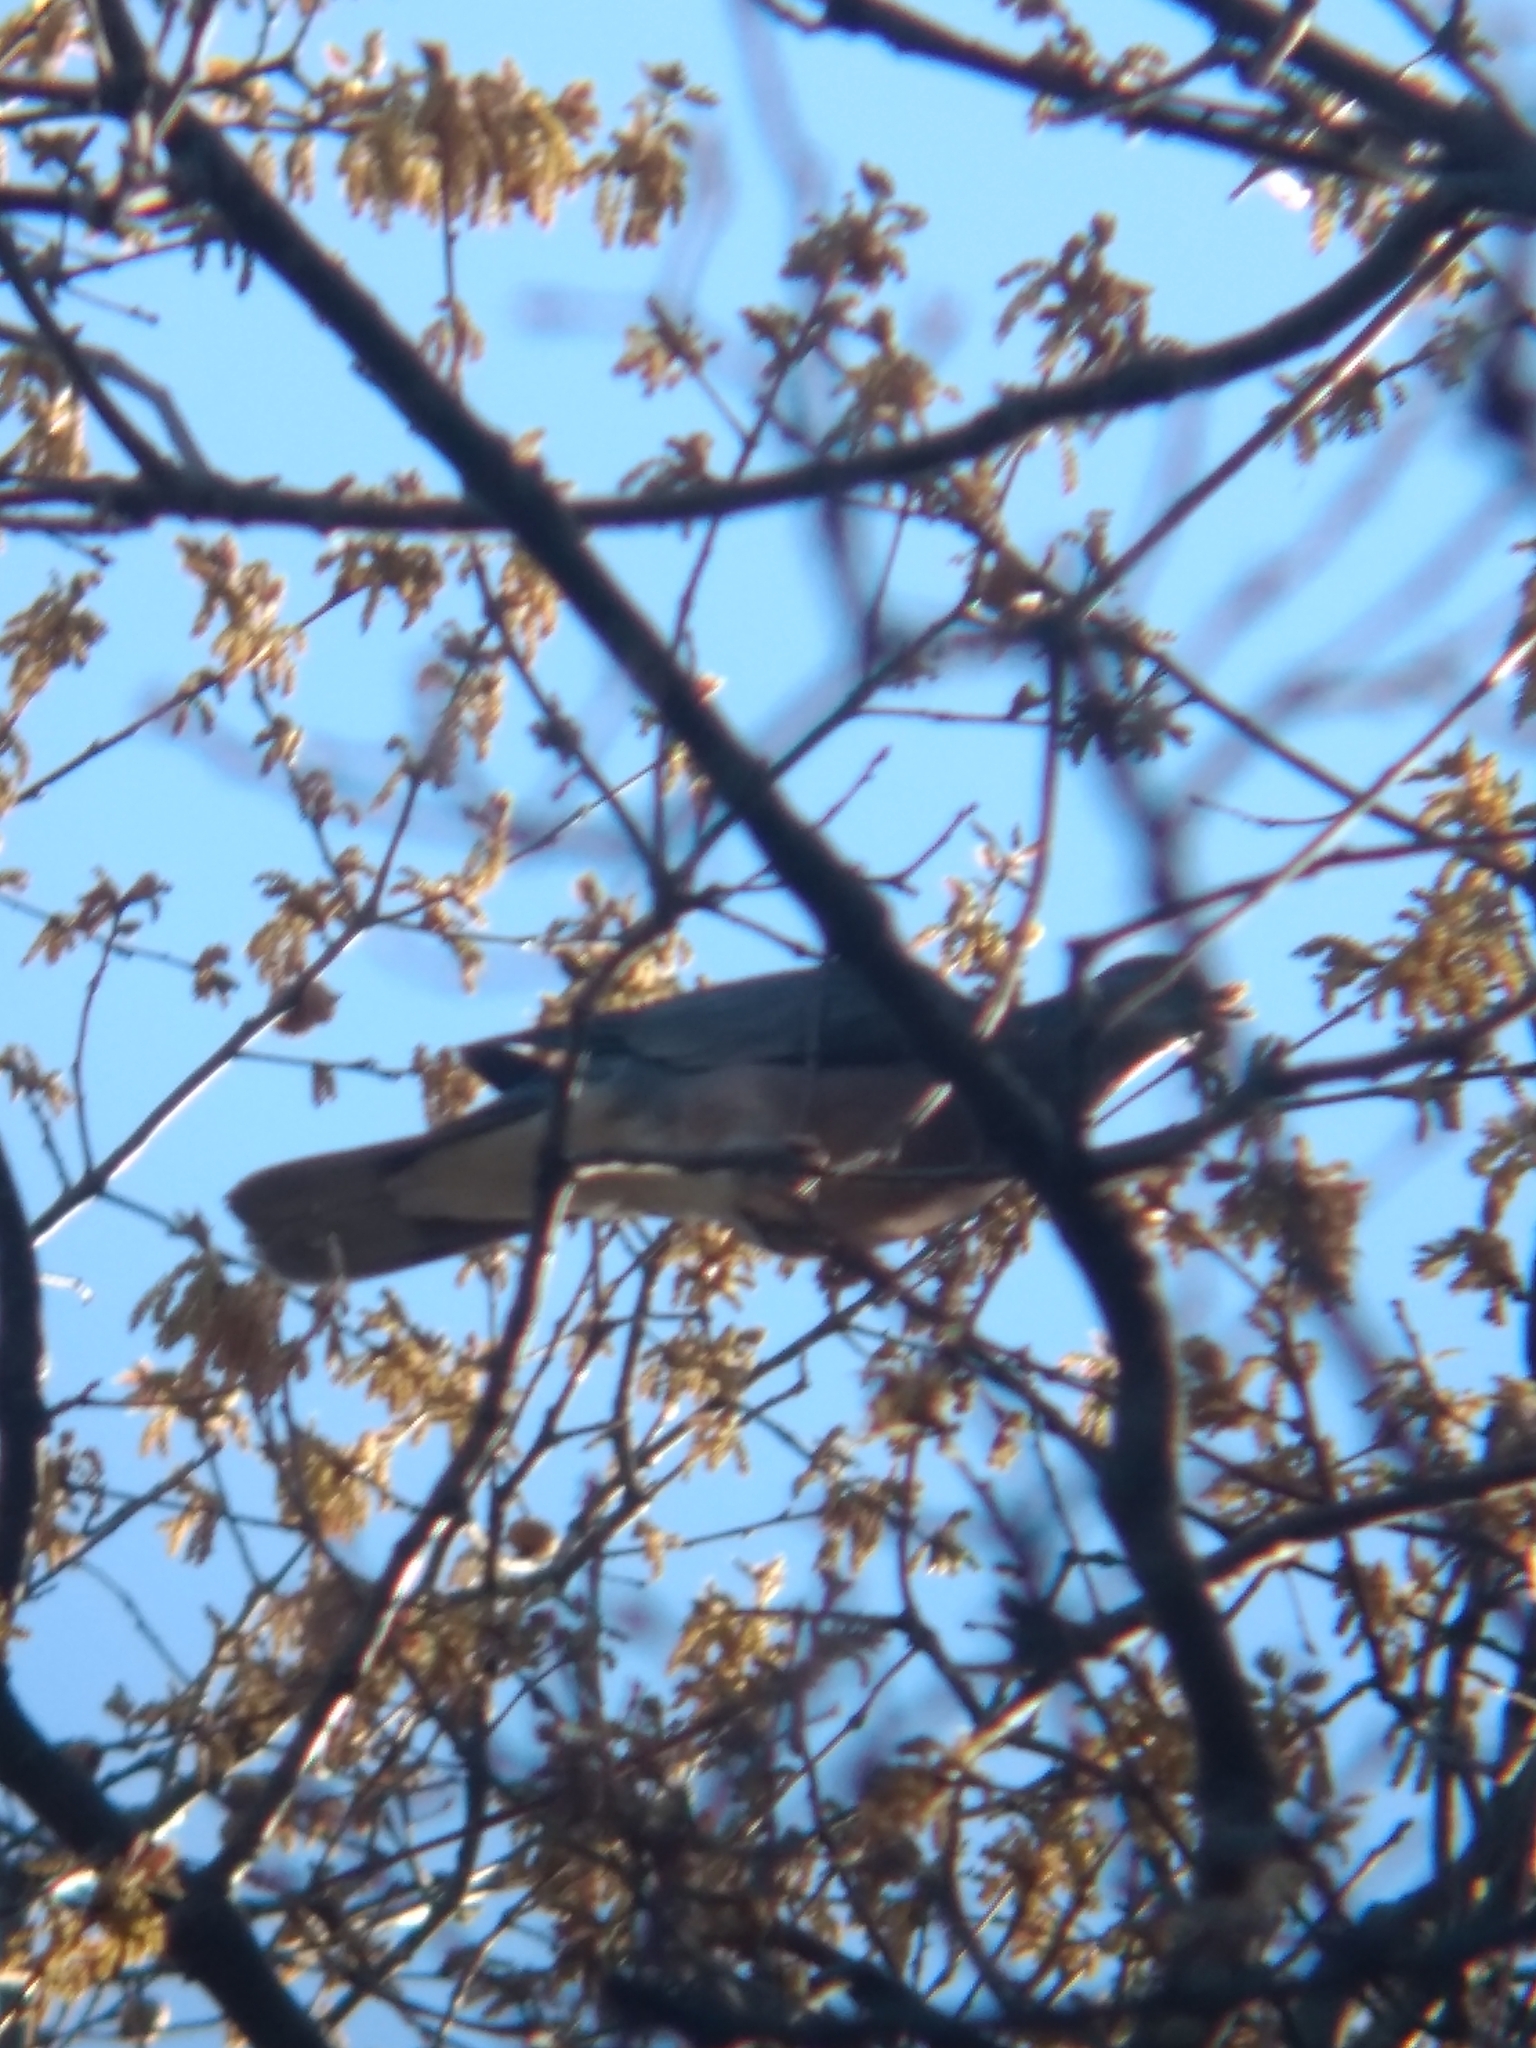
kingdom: Animalia
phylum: Chordata
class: Aves
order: Columbiformes
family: Columbidae
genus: Patagioenas
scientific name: Patagioenas fasciata
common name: Band-tailed pigeon
